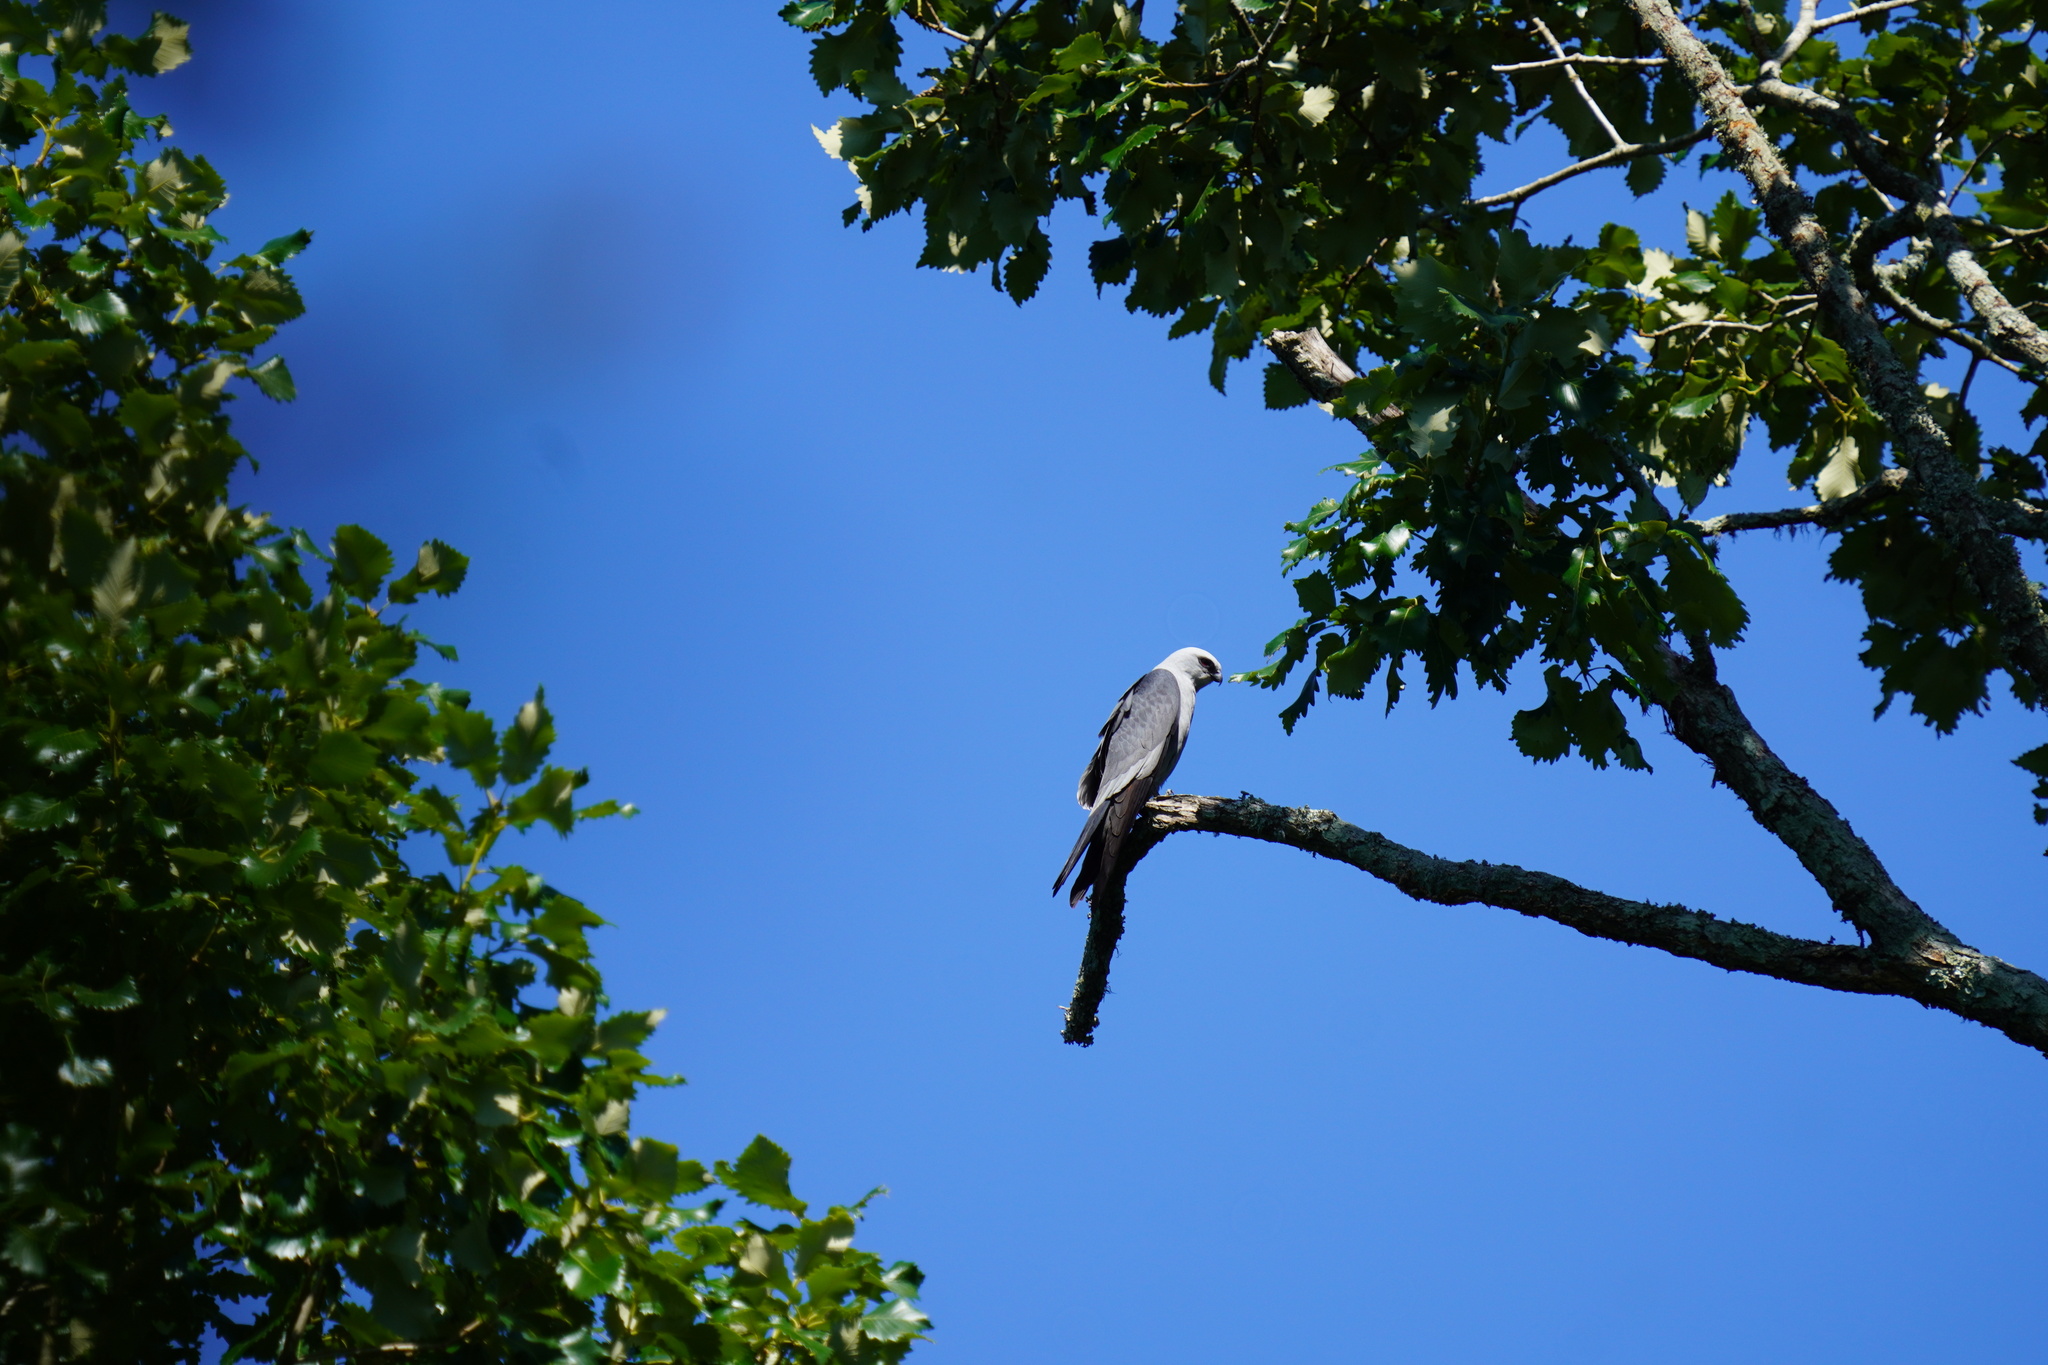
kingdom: Animalia
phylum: Chordata
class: Aves
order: Accipitriformes
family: Accipitridae
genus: Ictinia
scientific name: Ictinia mississippiensis
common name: Mississippi kite
